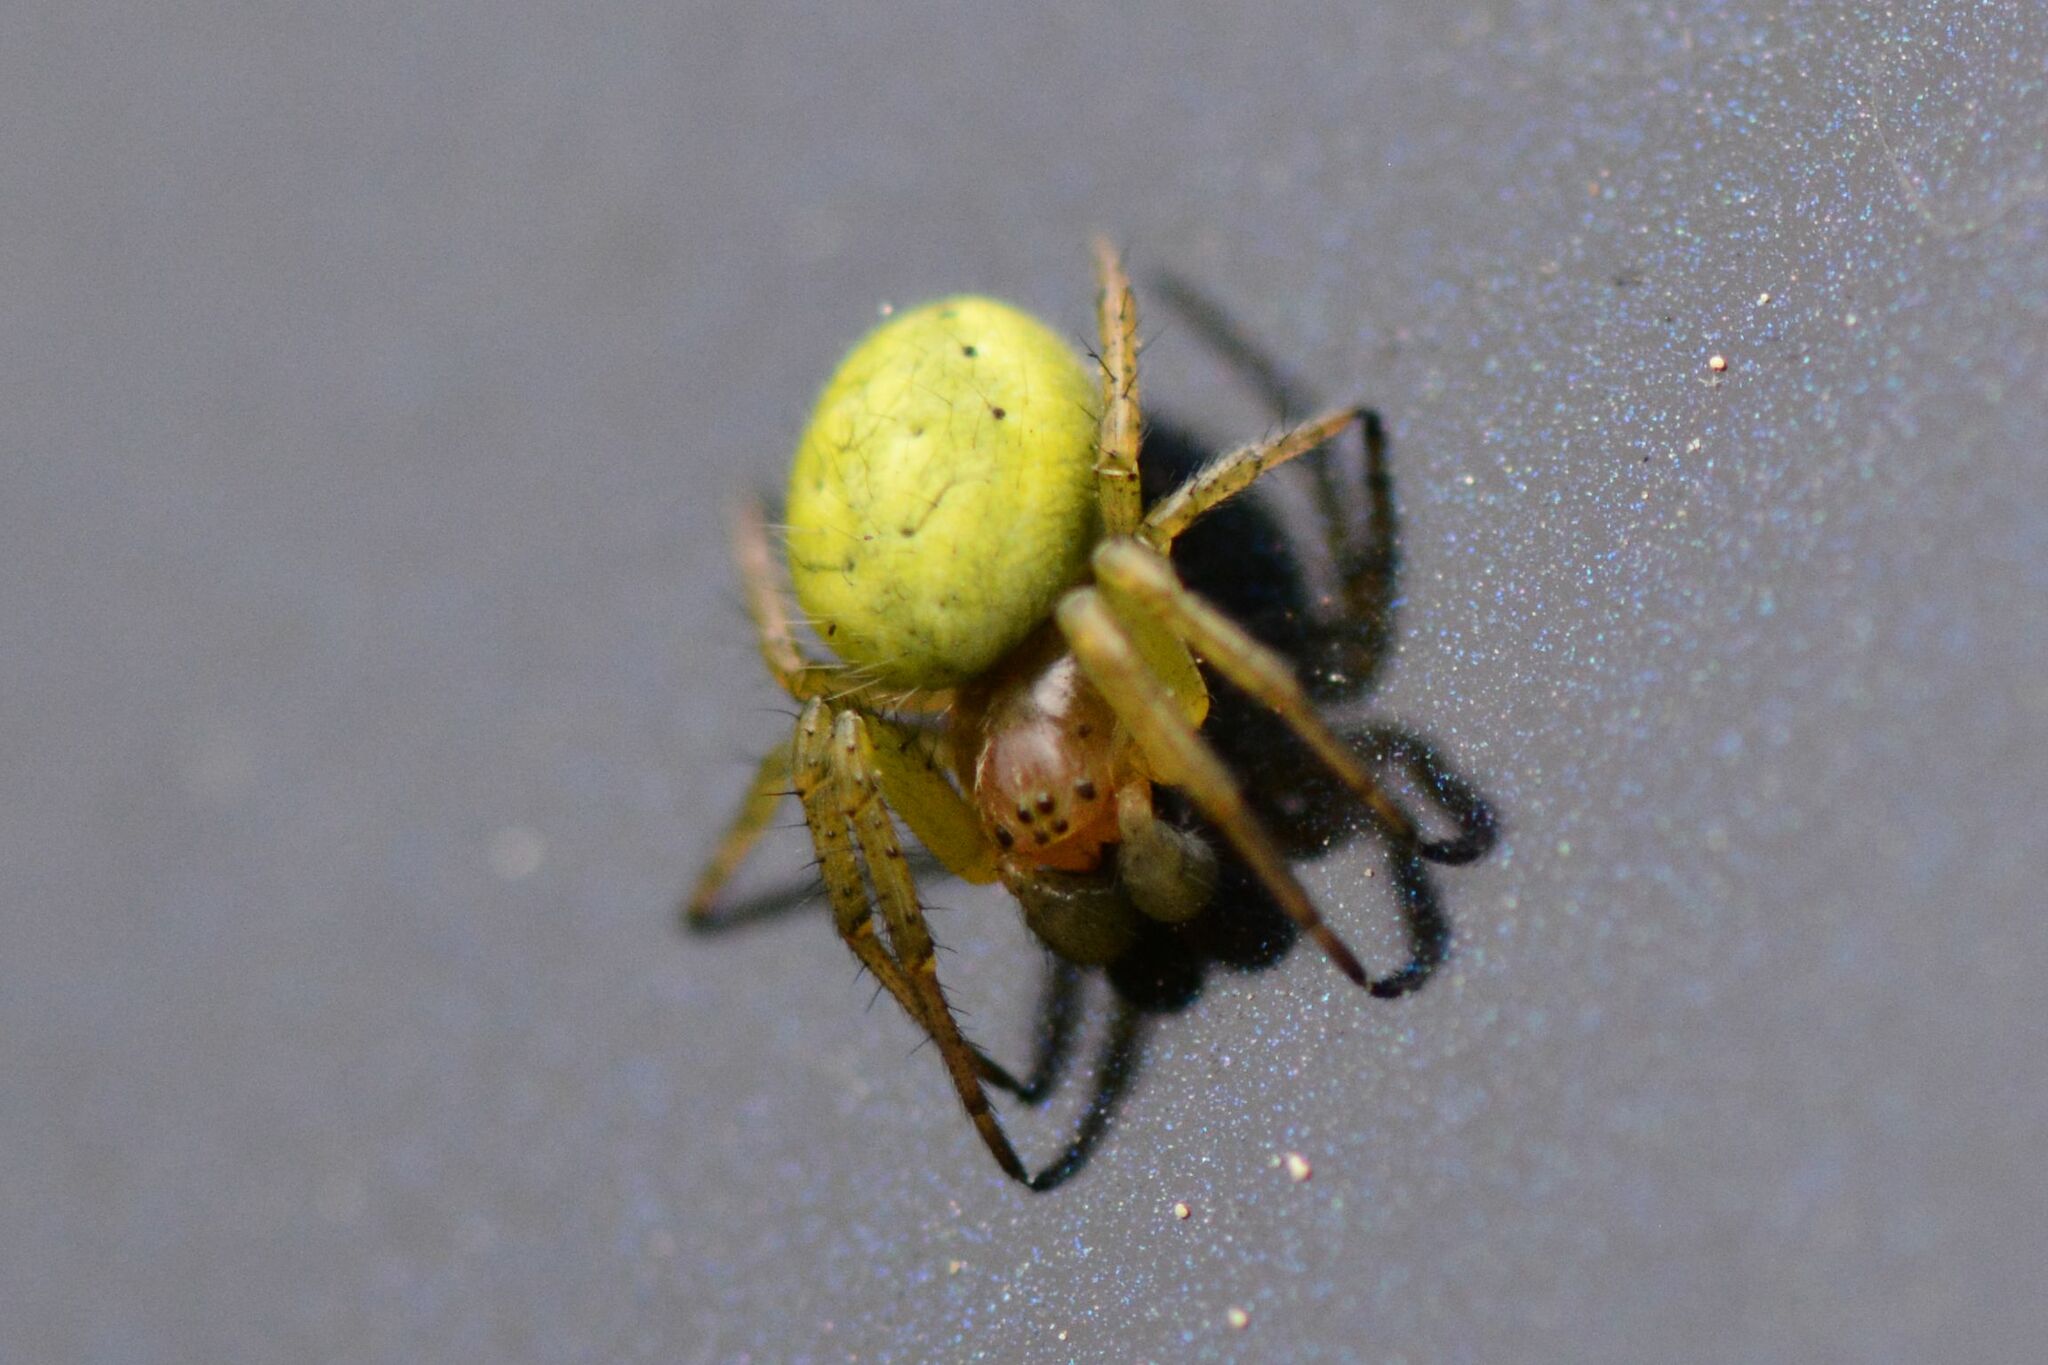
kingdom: Animalia
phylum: Arthropoda
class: Arachnida
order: Araneae
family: Araneidae
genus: Araniella
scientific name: Araniella cucurbitina
